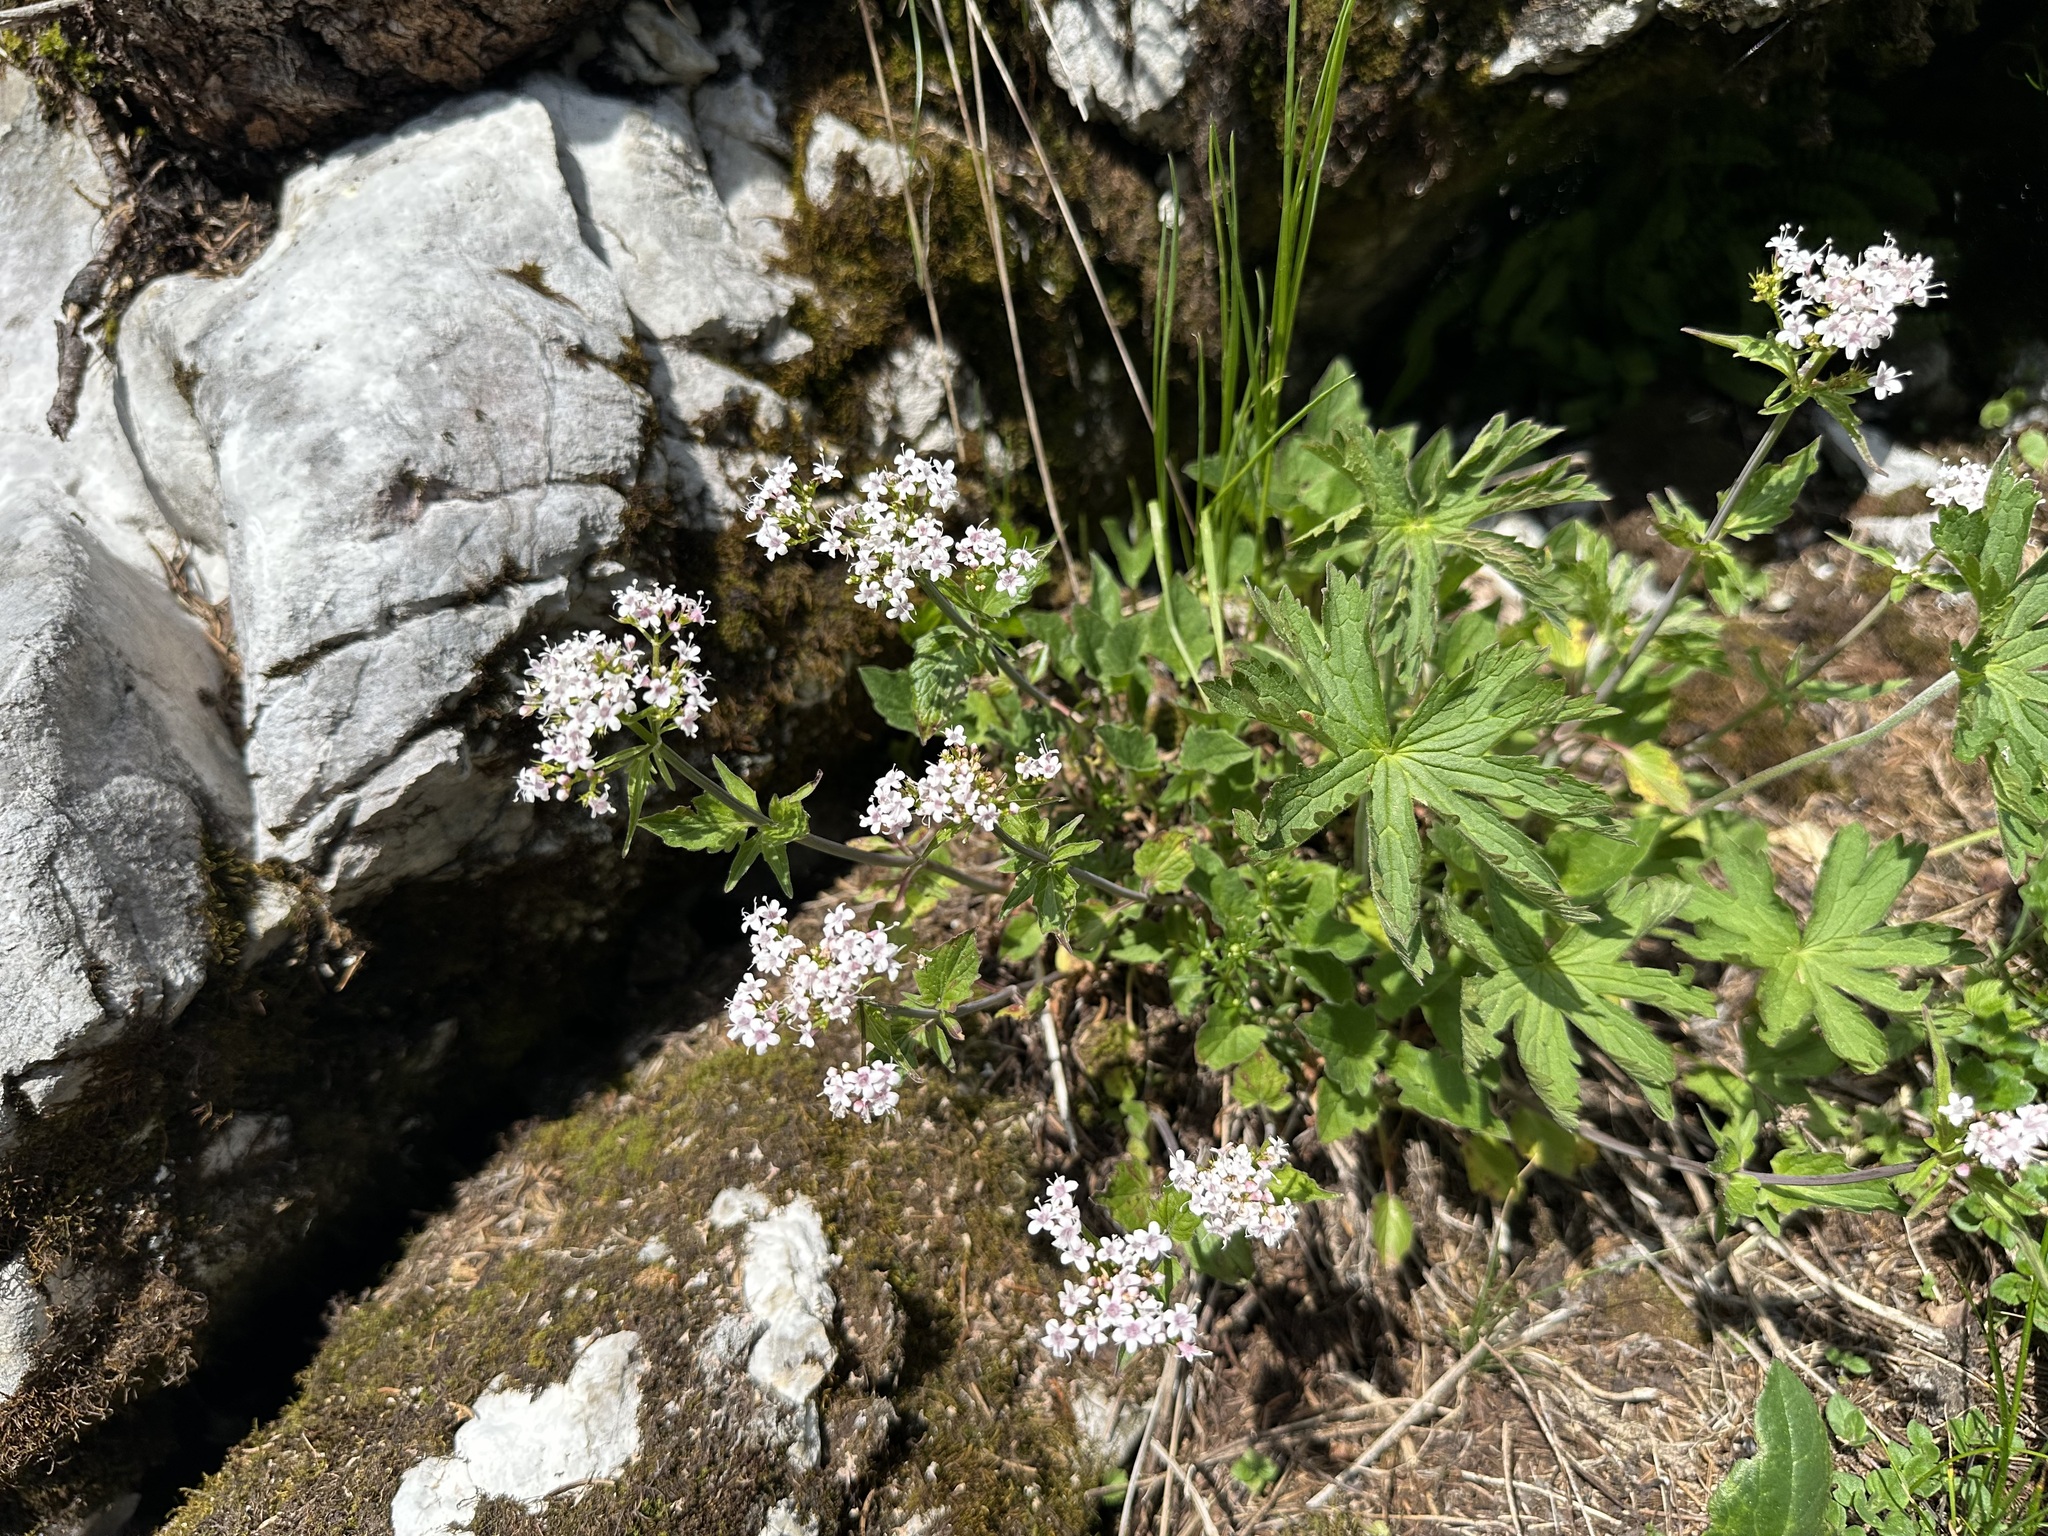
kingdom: Plantae
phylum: Tracheophyta
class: Magnoliopsida
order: Dipsacales
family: Caprifoliaceae
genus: Valeriana
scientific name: Valeriana tripteris
